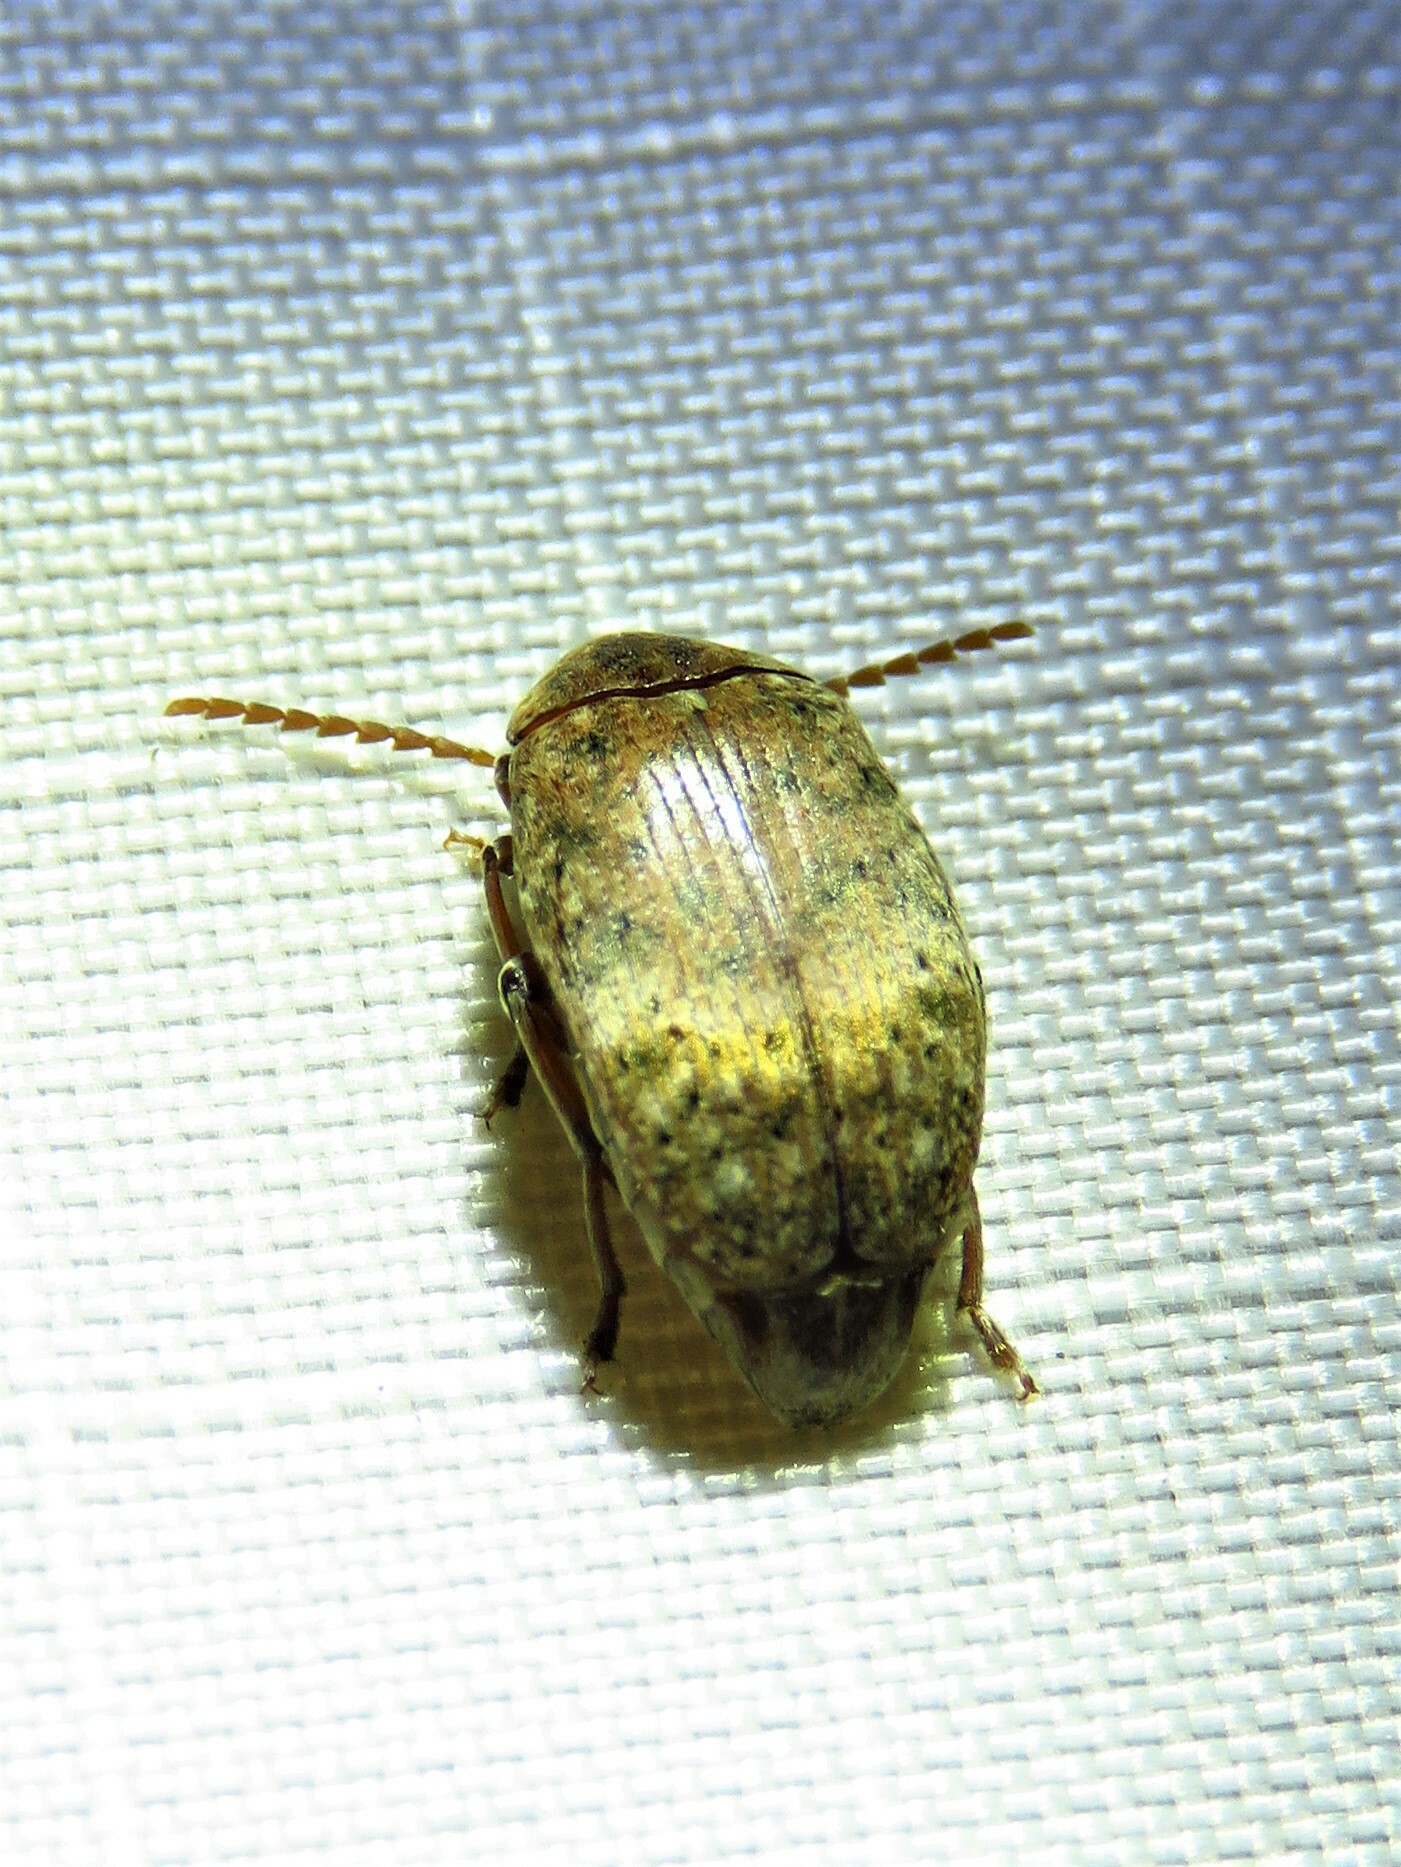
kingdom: Animalia
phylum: Arthropoda
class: Insecta
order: Coleoptera
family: Chrysomelidae
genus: Amblycerus
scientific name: Amblycerus robiniae
